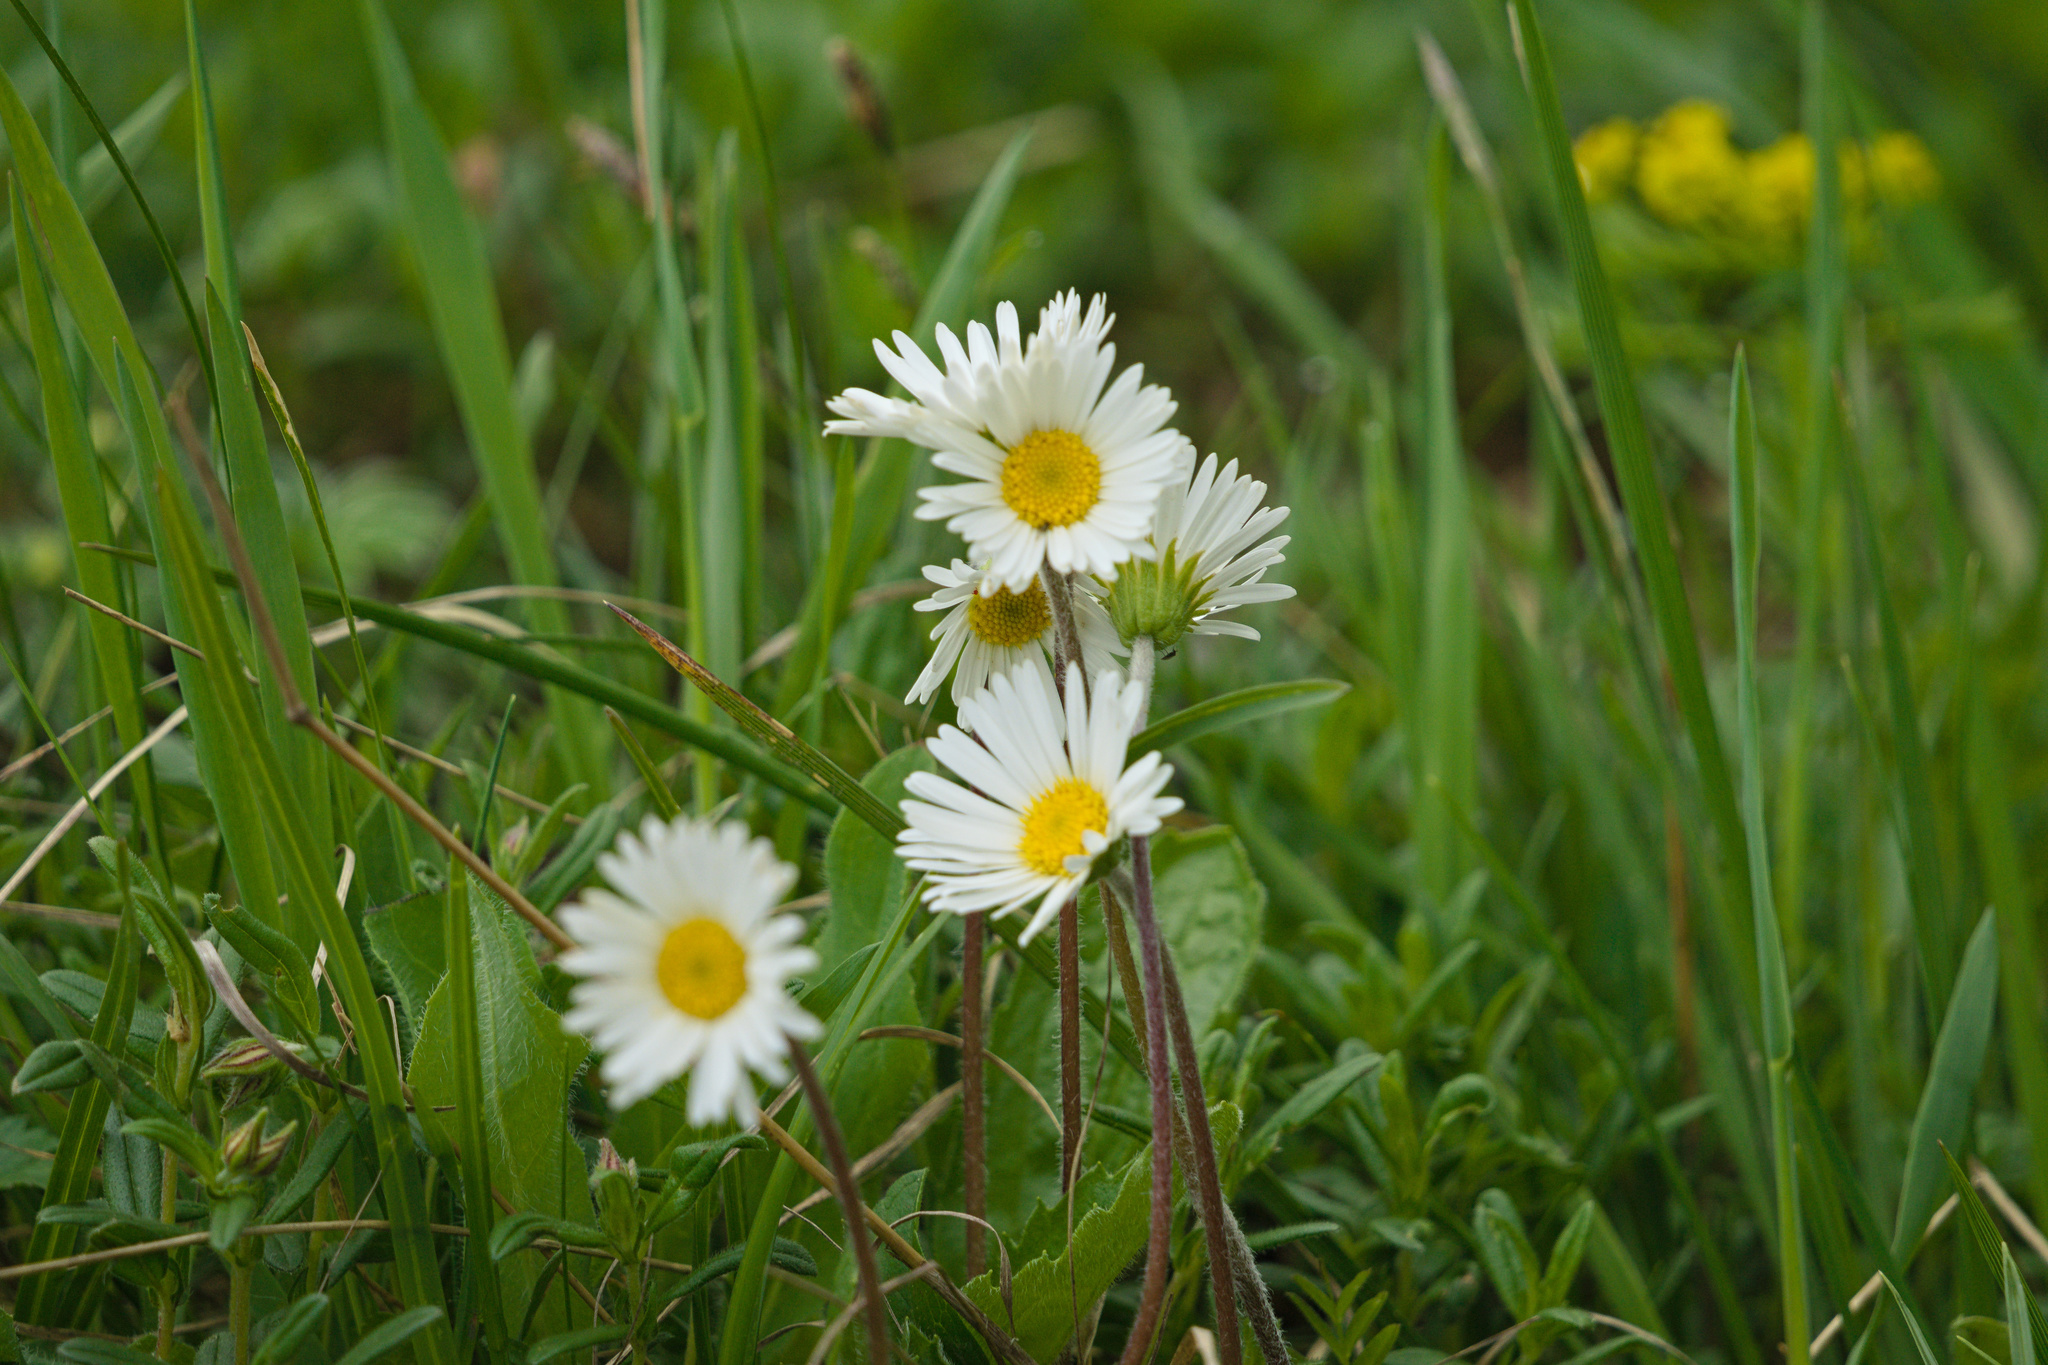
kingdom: Plantae
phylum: Tracheophyta
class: Magnoliopsida
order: Asterales
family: Asteraceae
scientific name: Asteraceae
